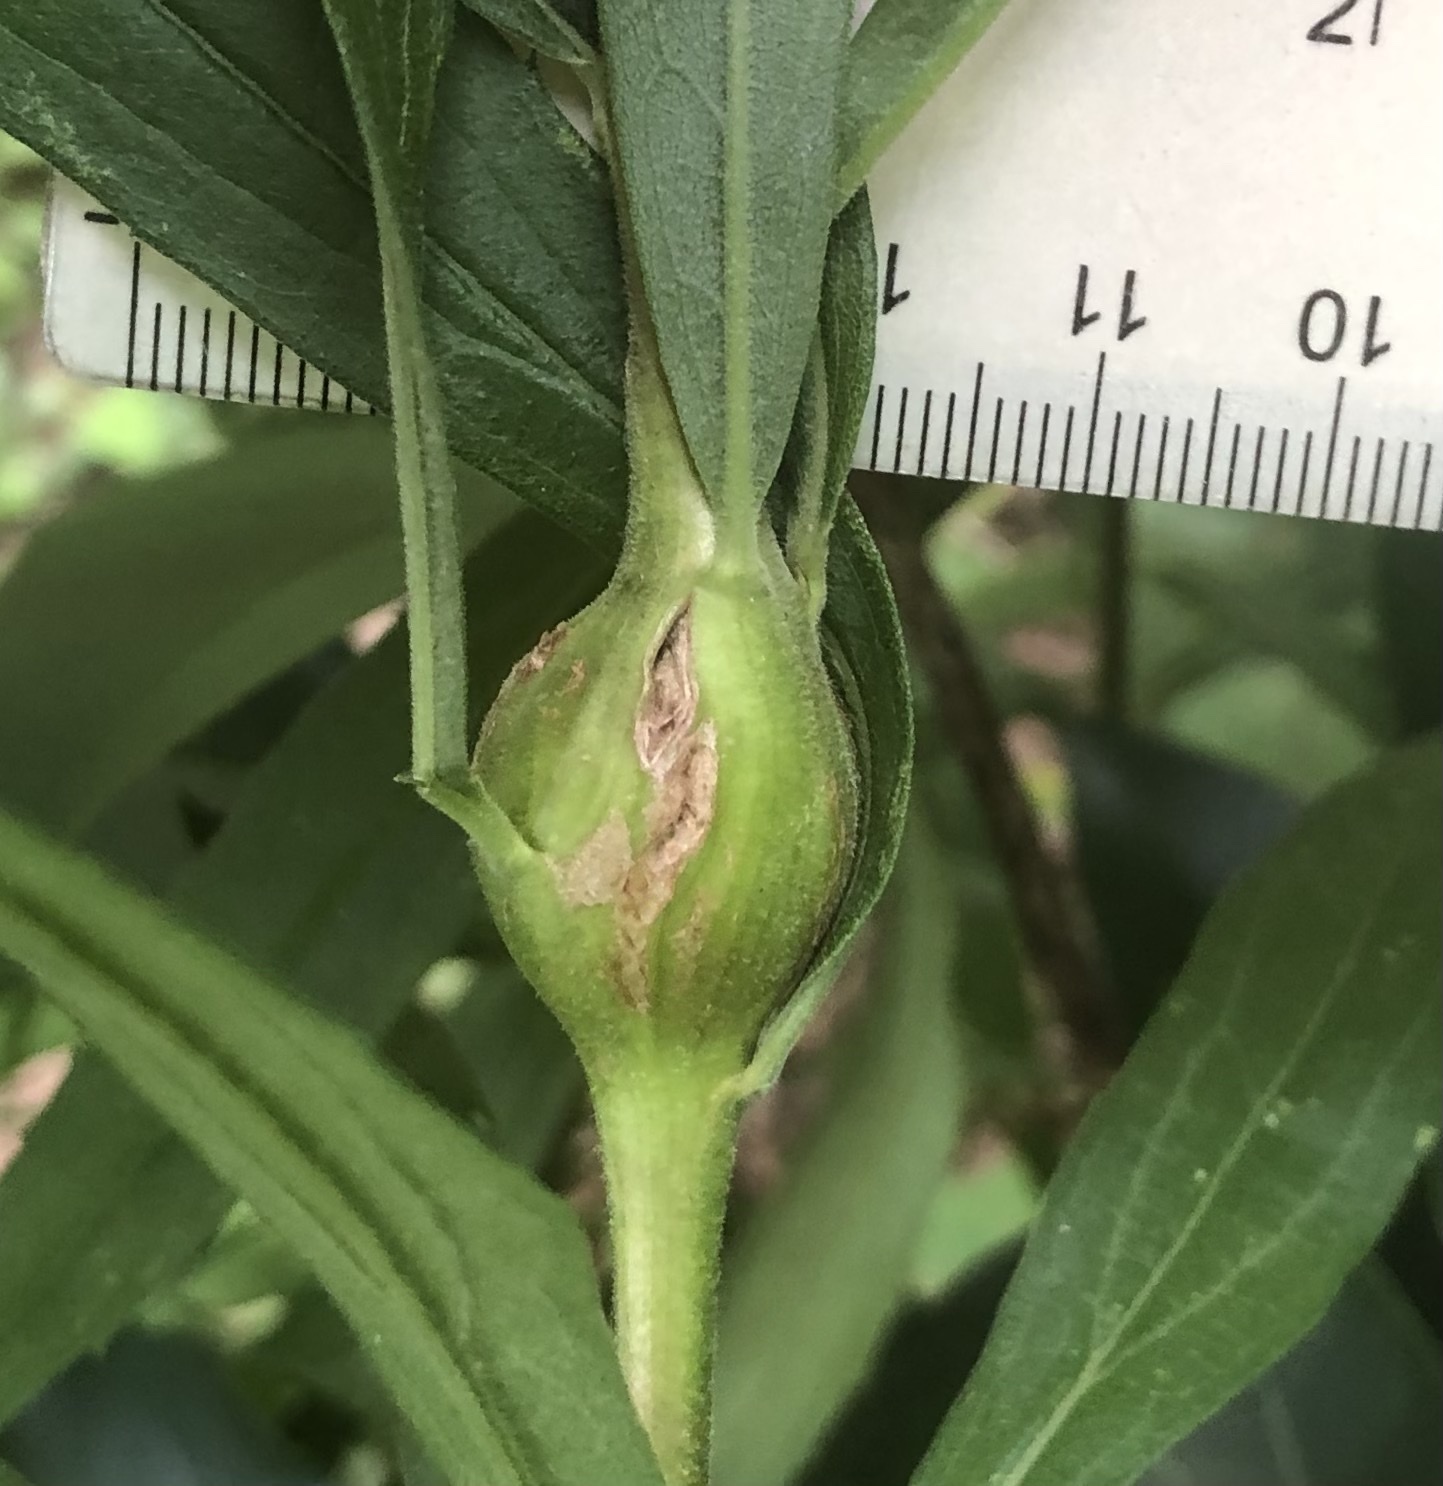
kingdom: Animalia
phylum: Arthropoda
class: Insecta
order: Diptera
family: Tephritidae
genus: Eurosta
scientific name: Eurosta solidaginis
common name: Goldenrod gall fly
